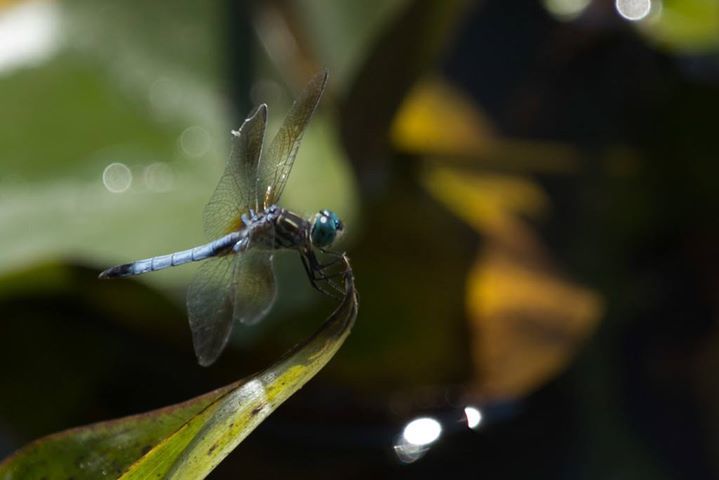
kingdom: Animalia
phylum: Arthropoda
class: Insecta
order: Odonata
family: Libellulidae
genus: Pachydiplax
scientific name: Pachydiplax longipennis
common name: Blue dasher
